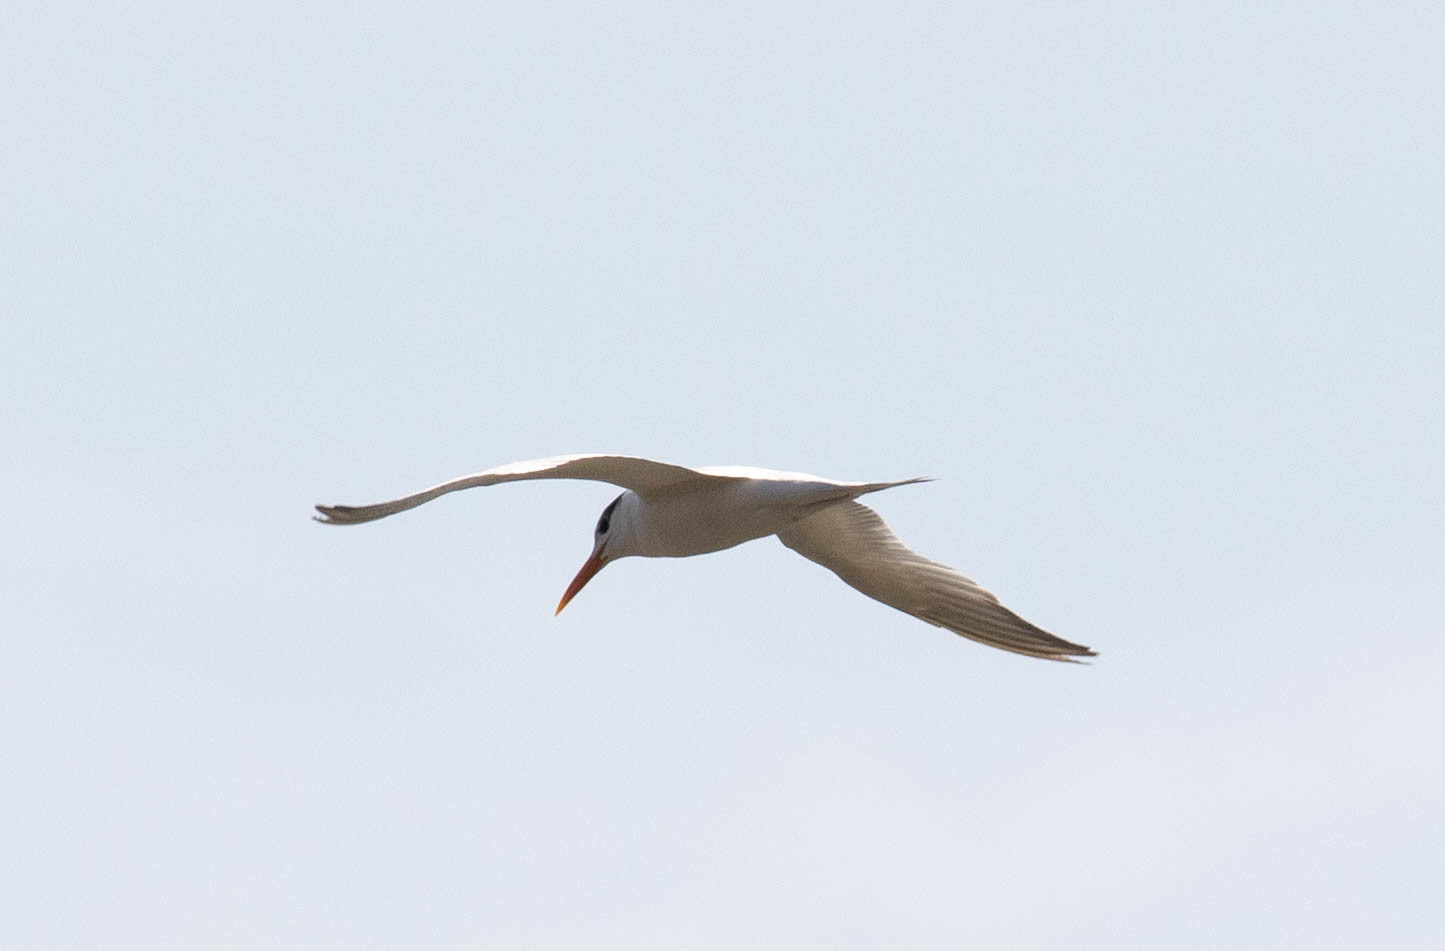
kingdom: Animalia
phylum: Chordata
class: Aves
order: Charadriiformes
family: Laridae
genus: Thalasseus
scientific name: Thalasseus maximus
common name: Royal tern
